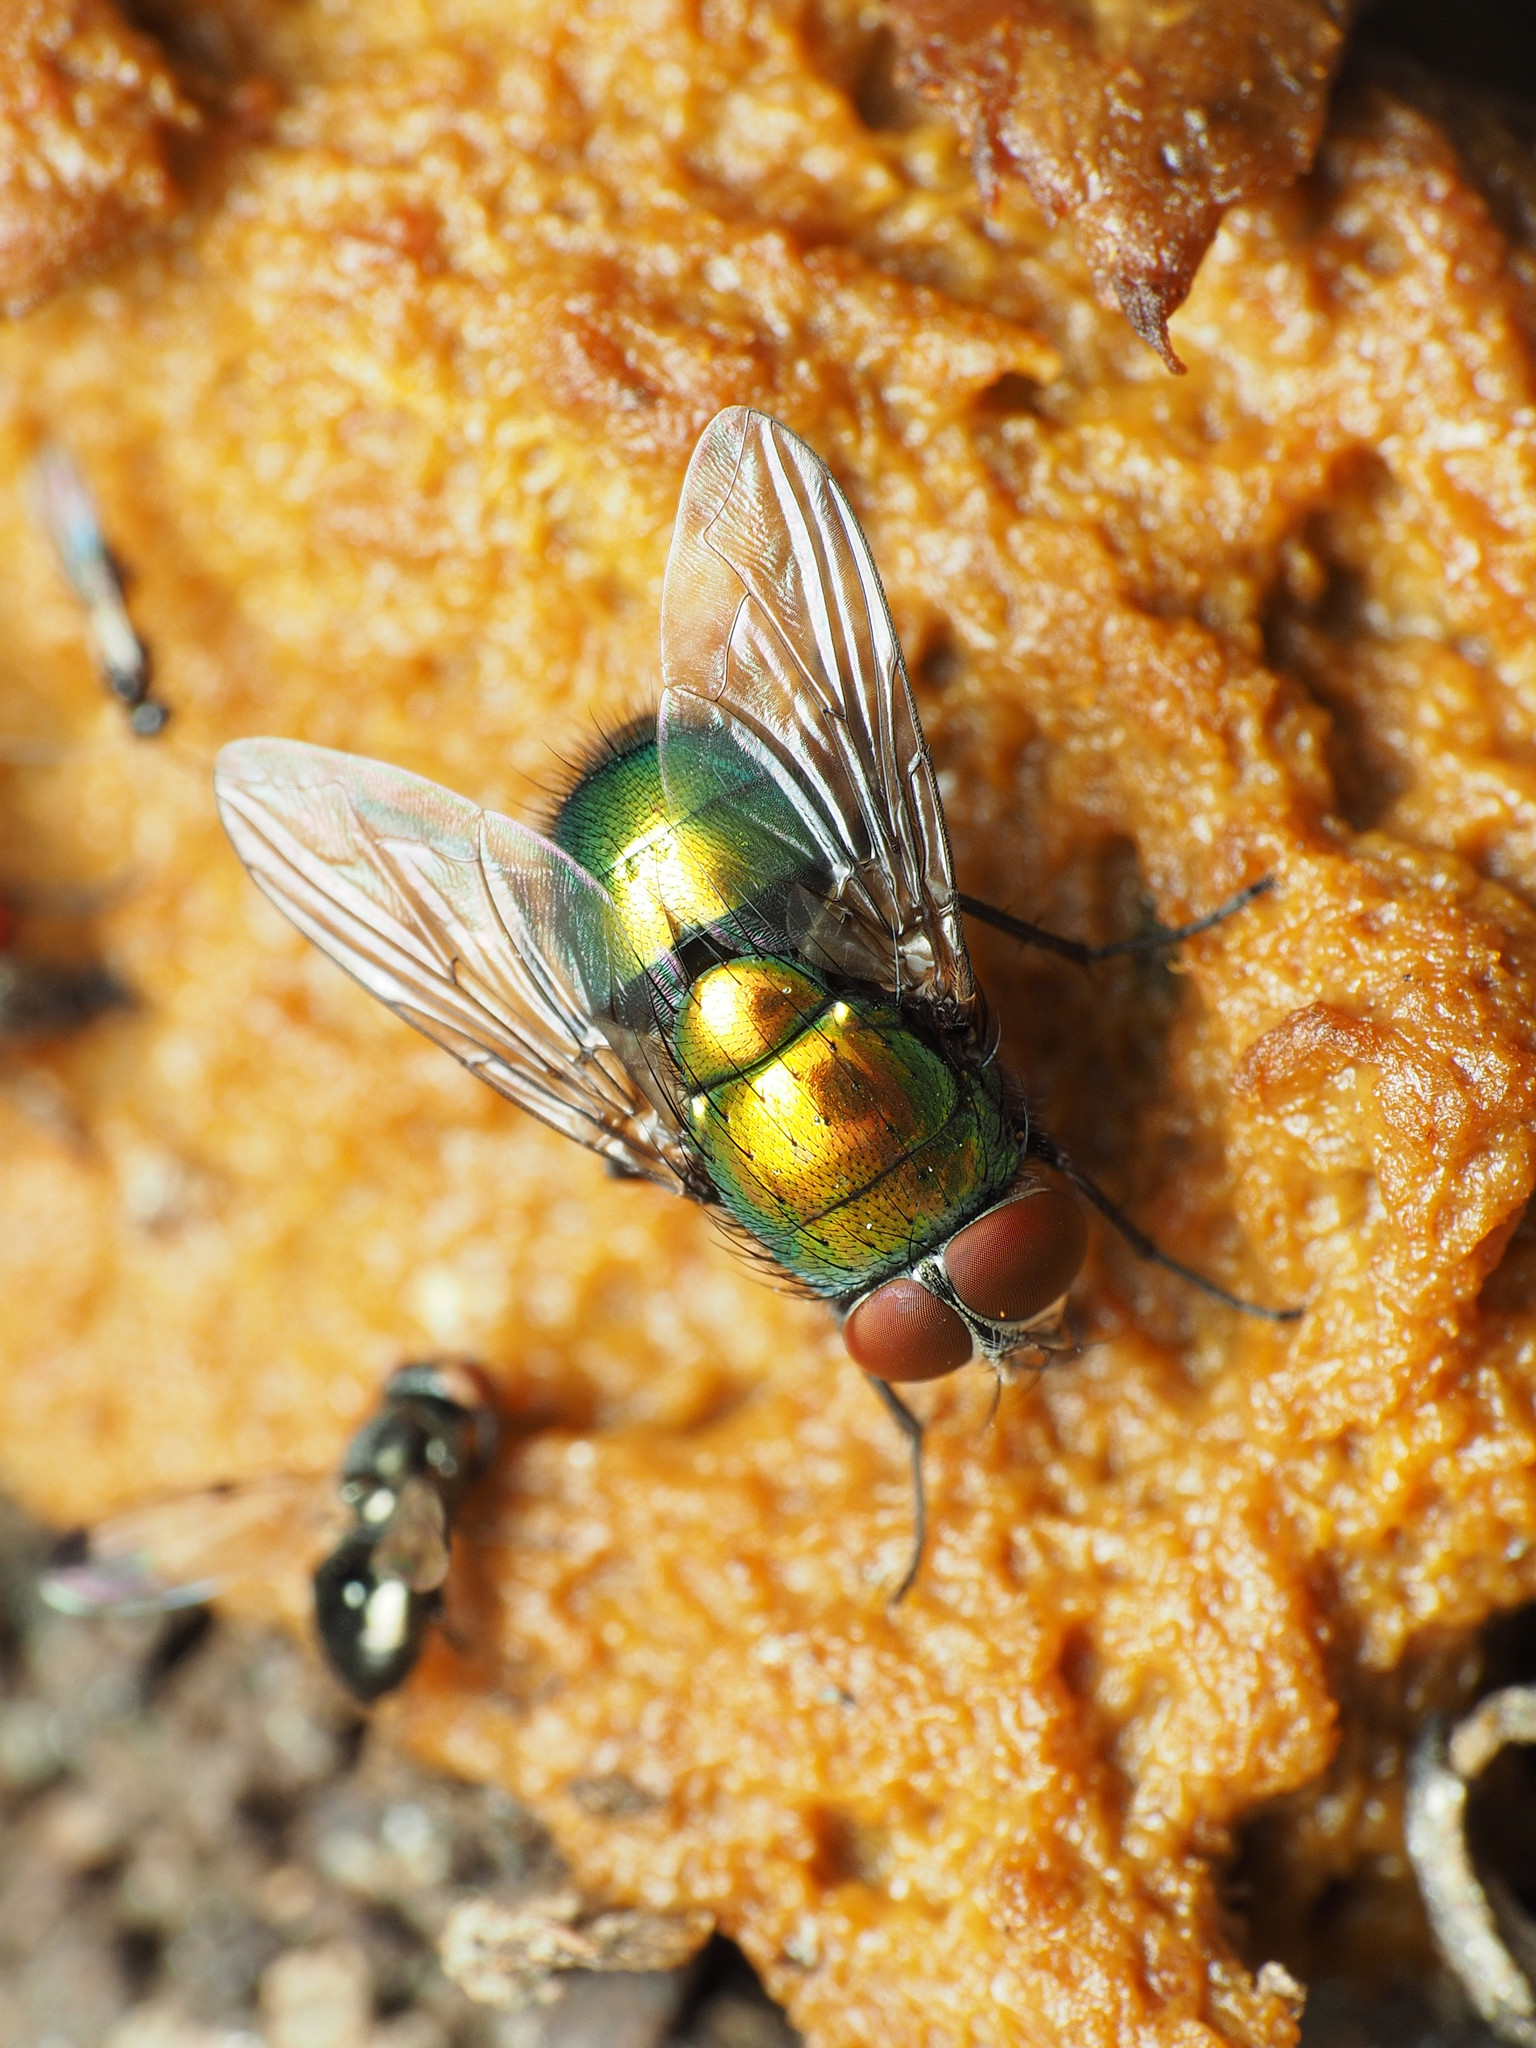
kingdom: Animalia
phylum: Arthropoda
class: Insecta
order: Diptera
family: Calliphoridae
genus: Lucilia
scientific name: Lucilia illustris
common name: Illustrious greenbottle
